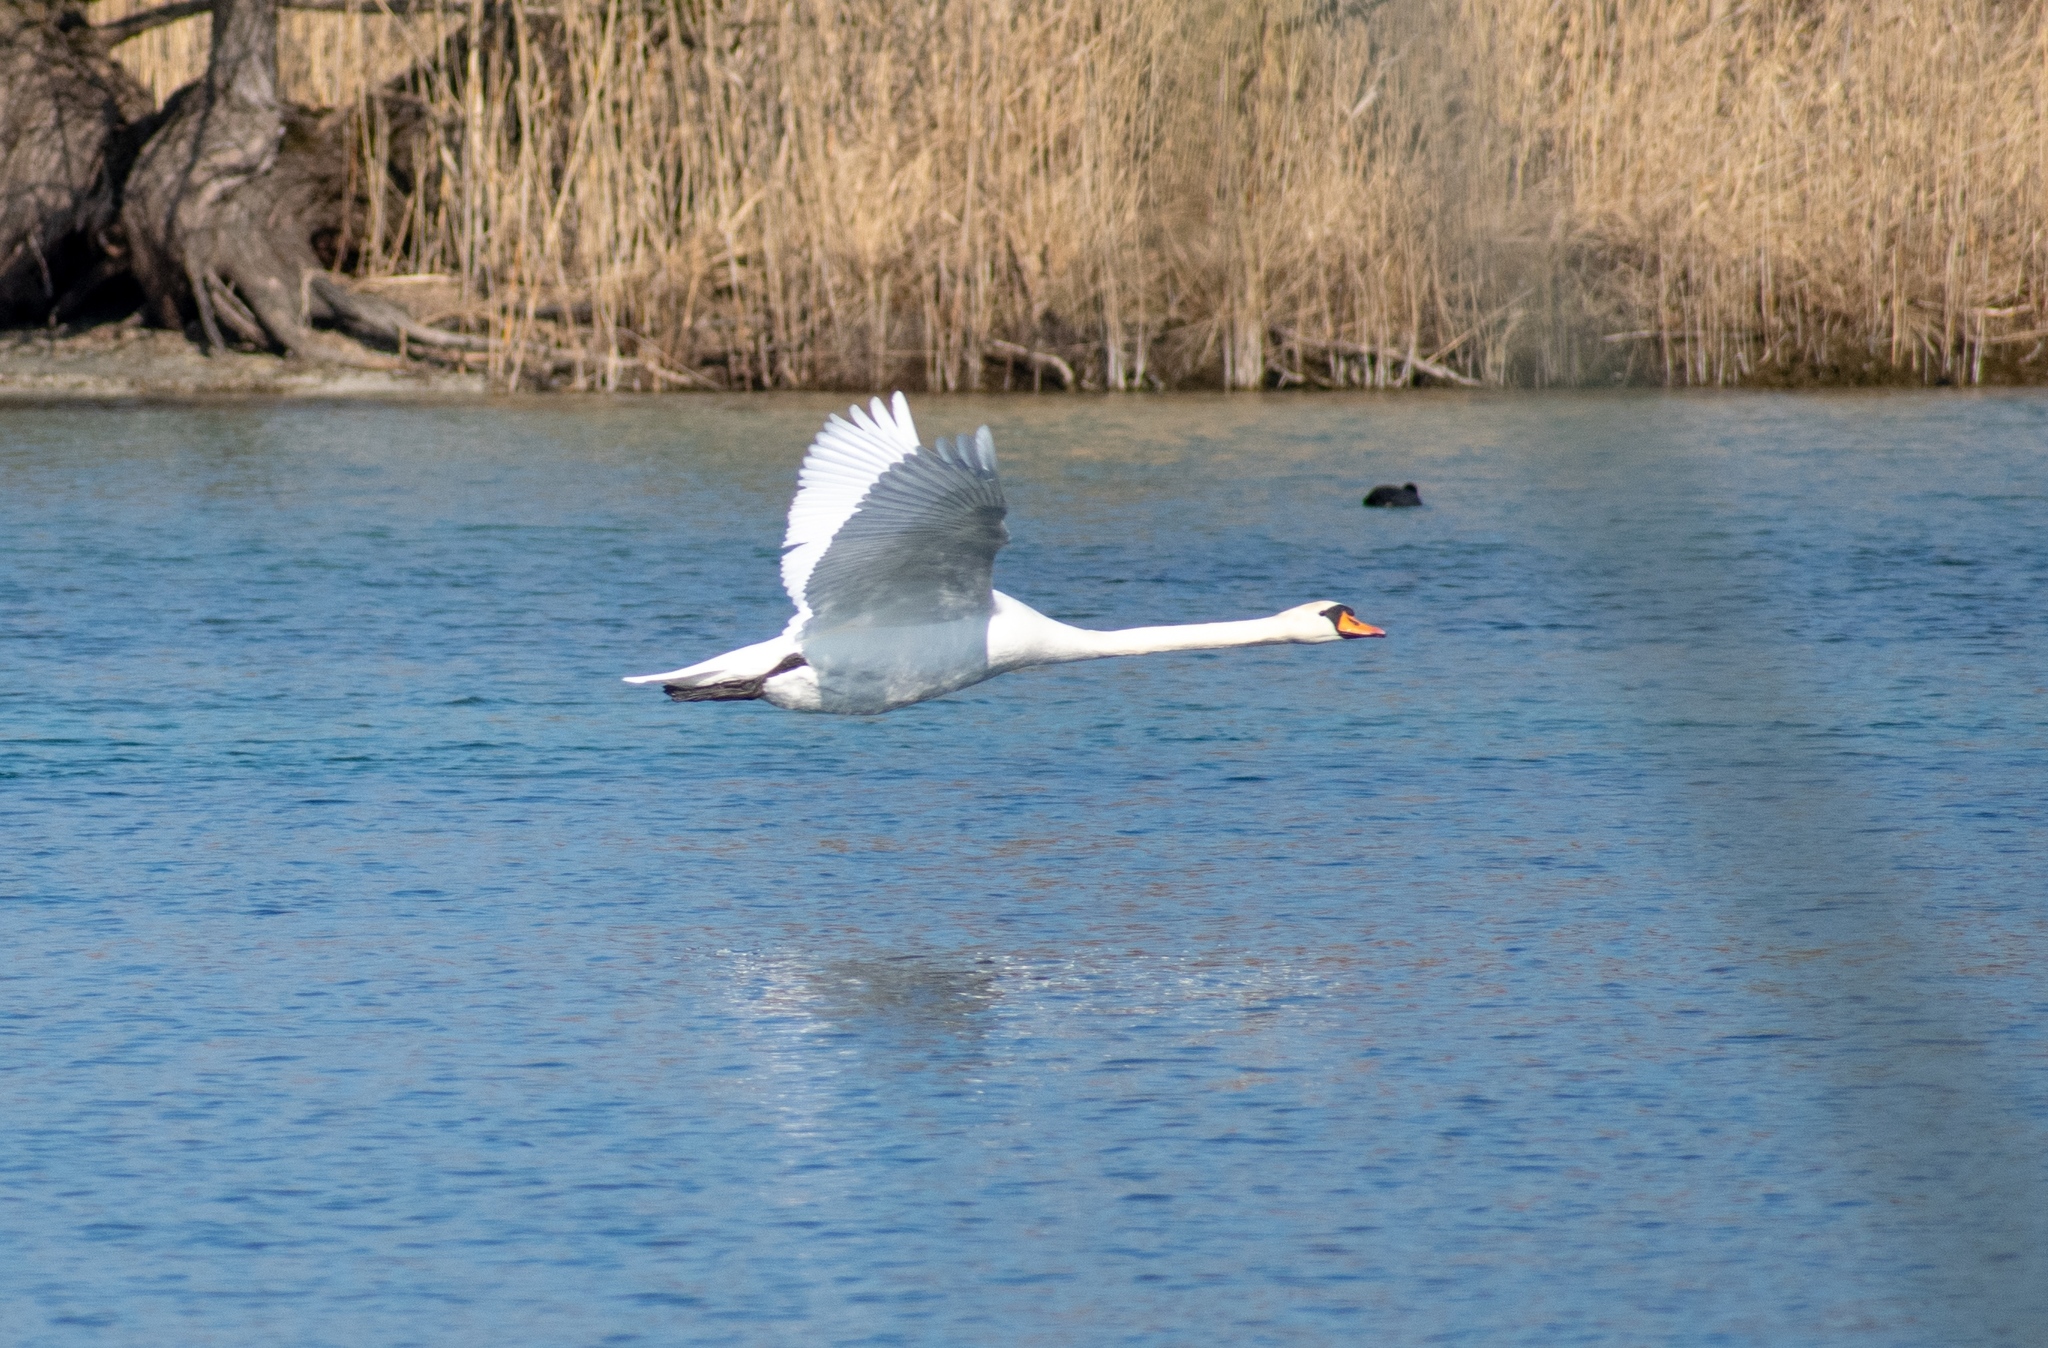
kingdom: Animalia
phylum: Chordata
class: Aves
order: Anseriformes
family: Anatidae
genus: Cygnus
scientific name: Cygnus olor
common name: Mute swan
